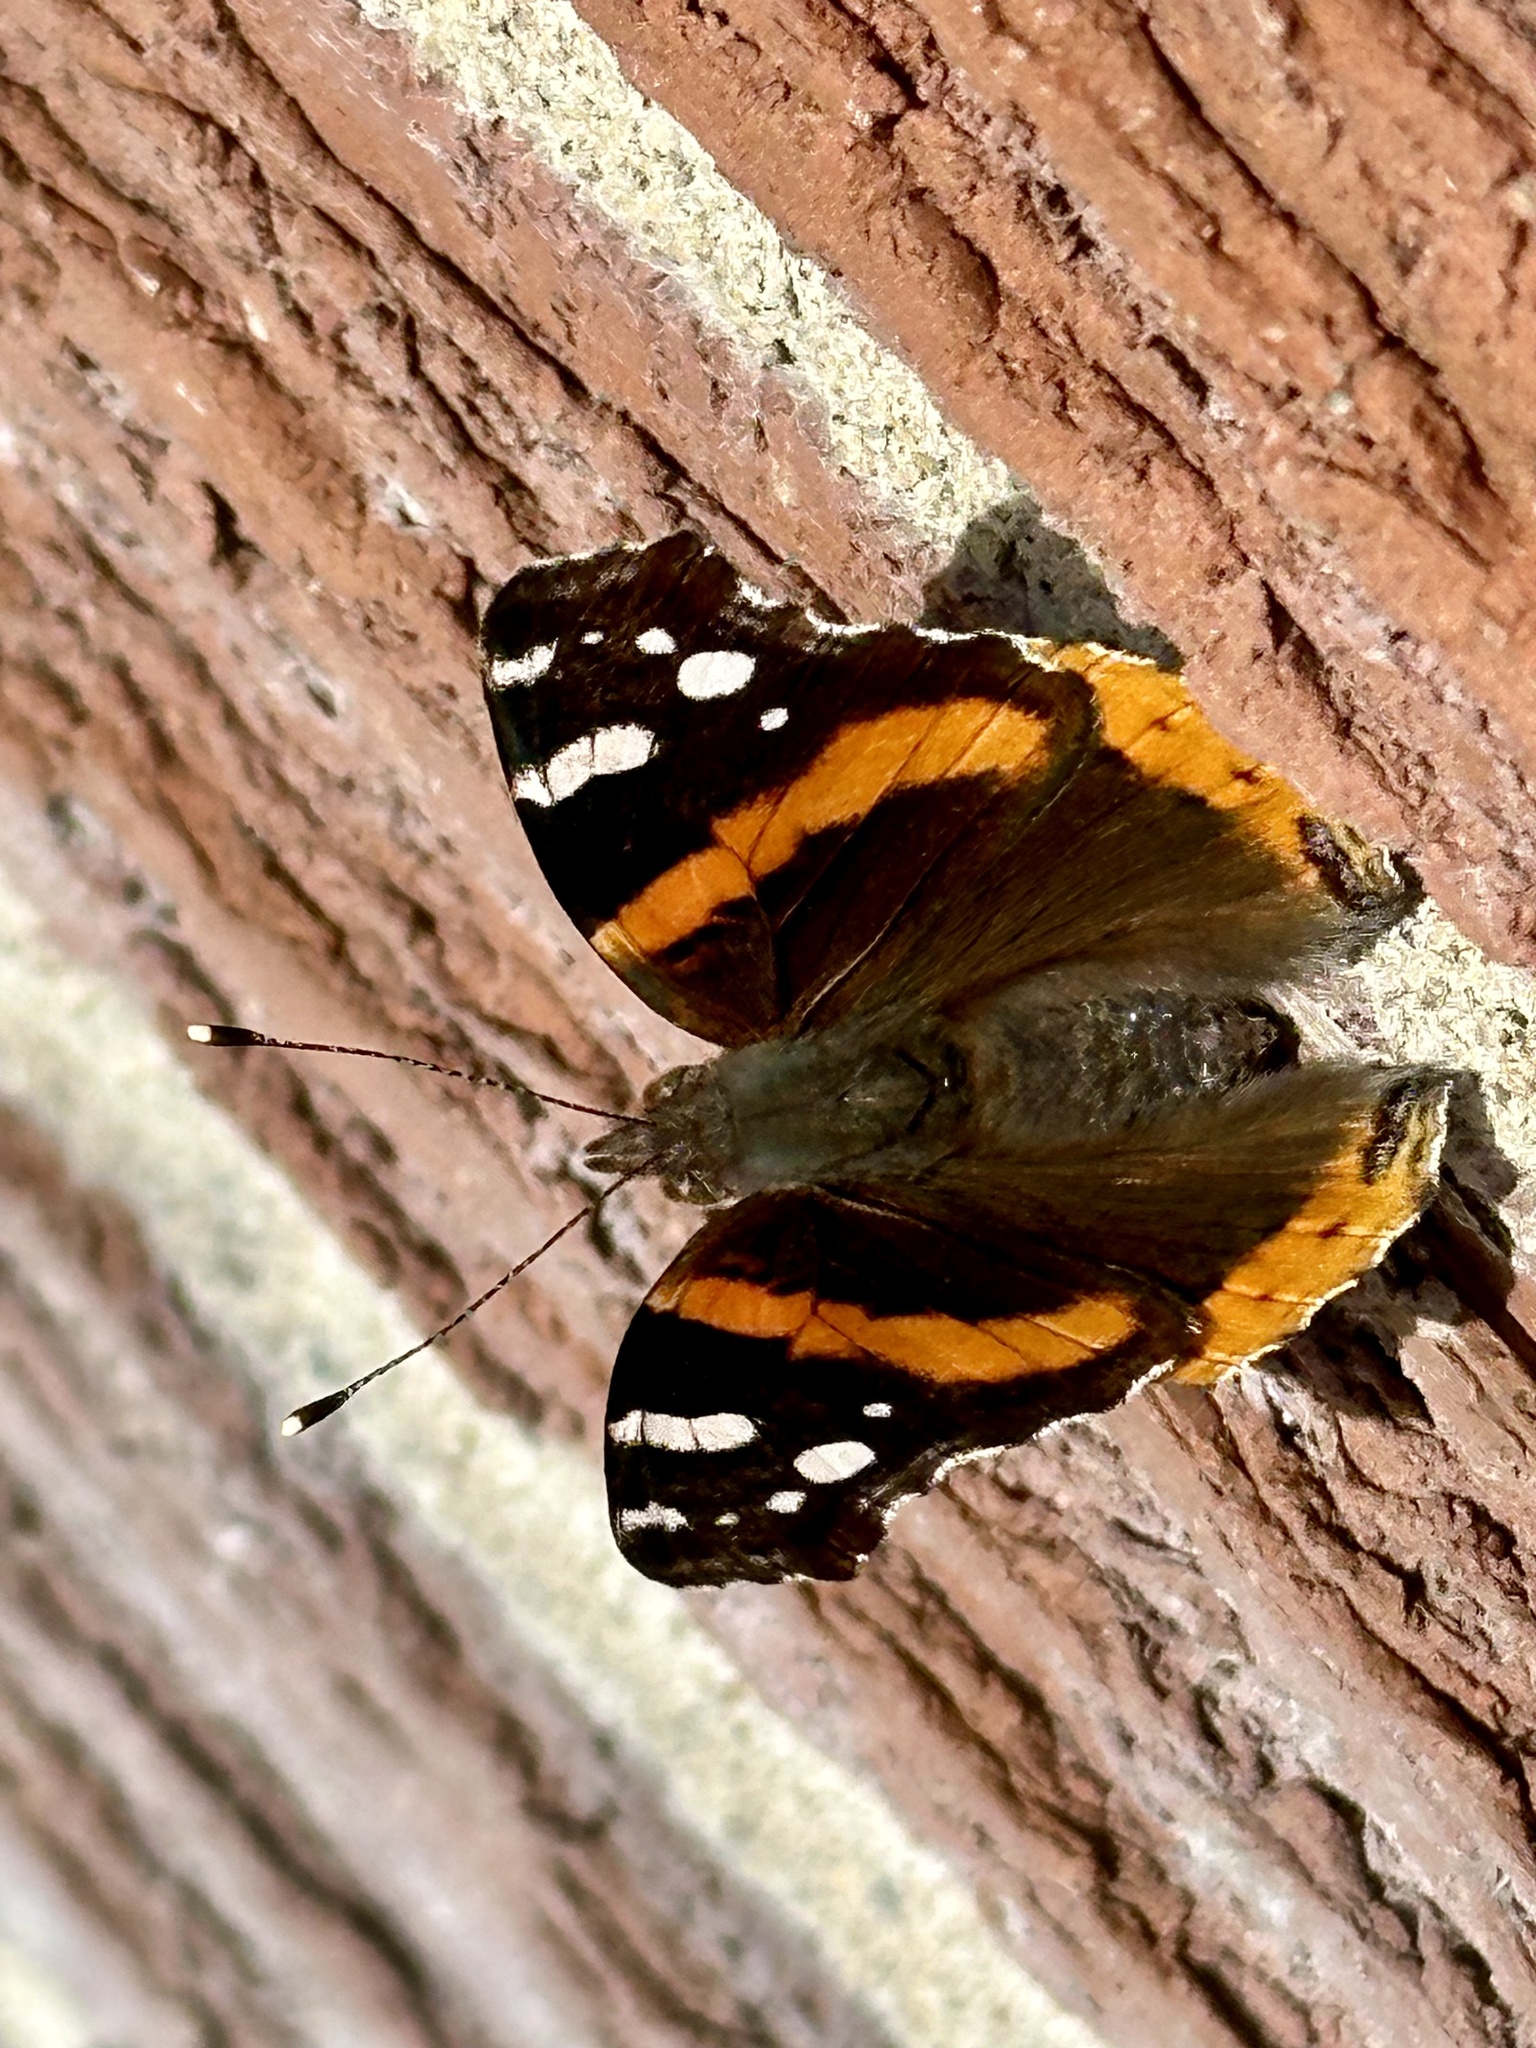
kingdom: Animalia
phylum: Arthropoda
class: Insecta
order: Lepidoptera
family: Nymphalidae
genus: Vanessa
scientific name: Vanessa atalanta
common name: Red admiral
